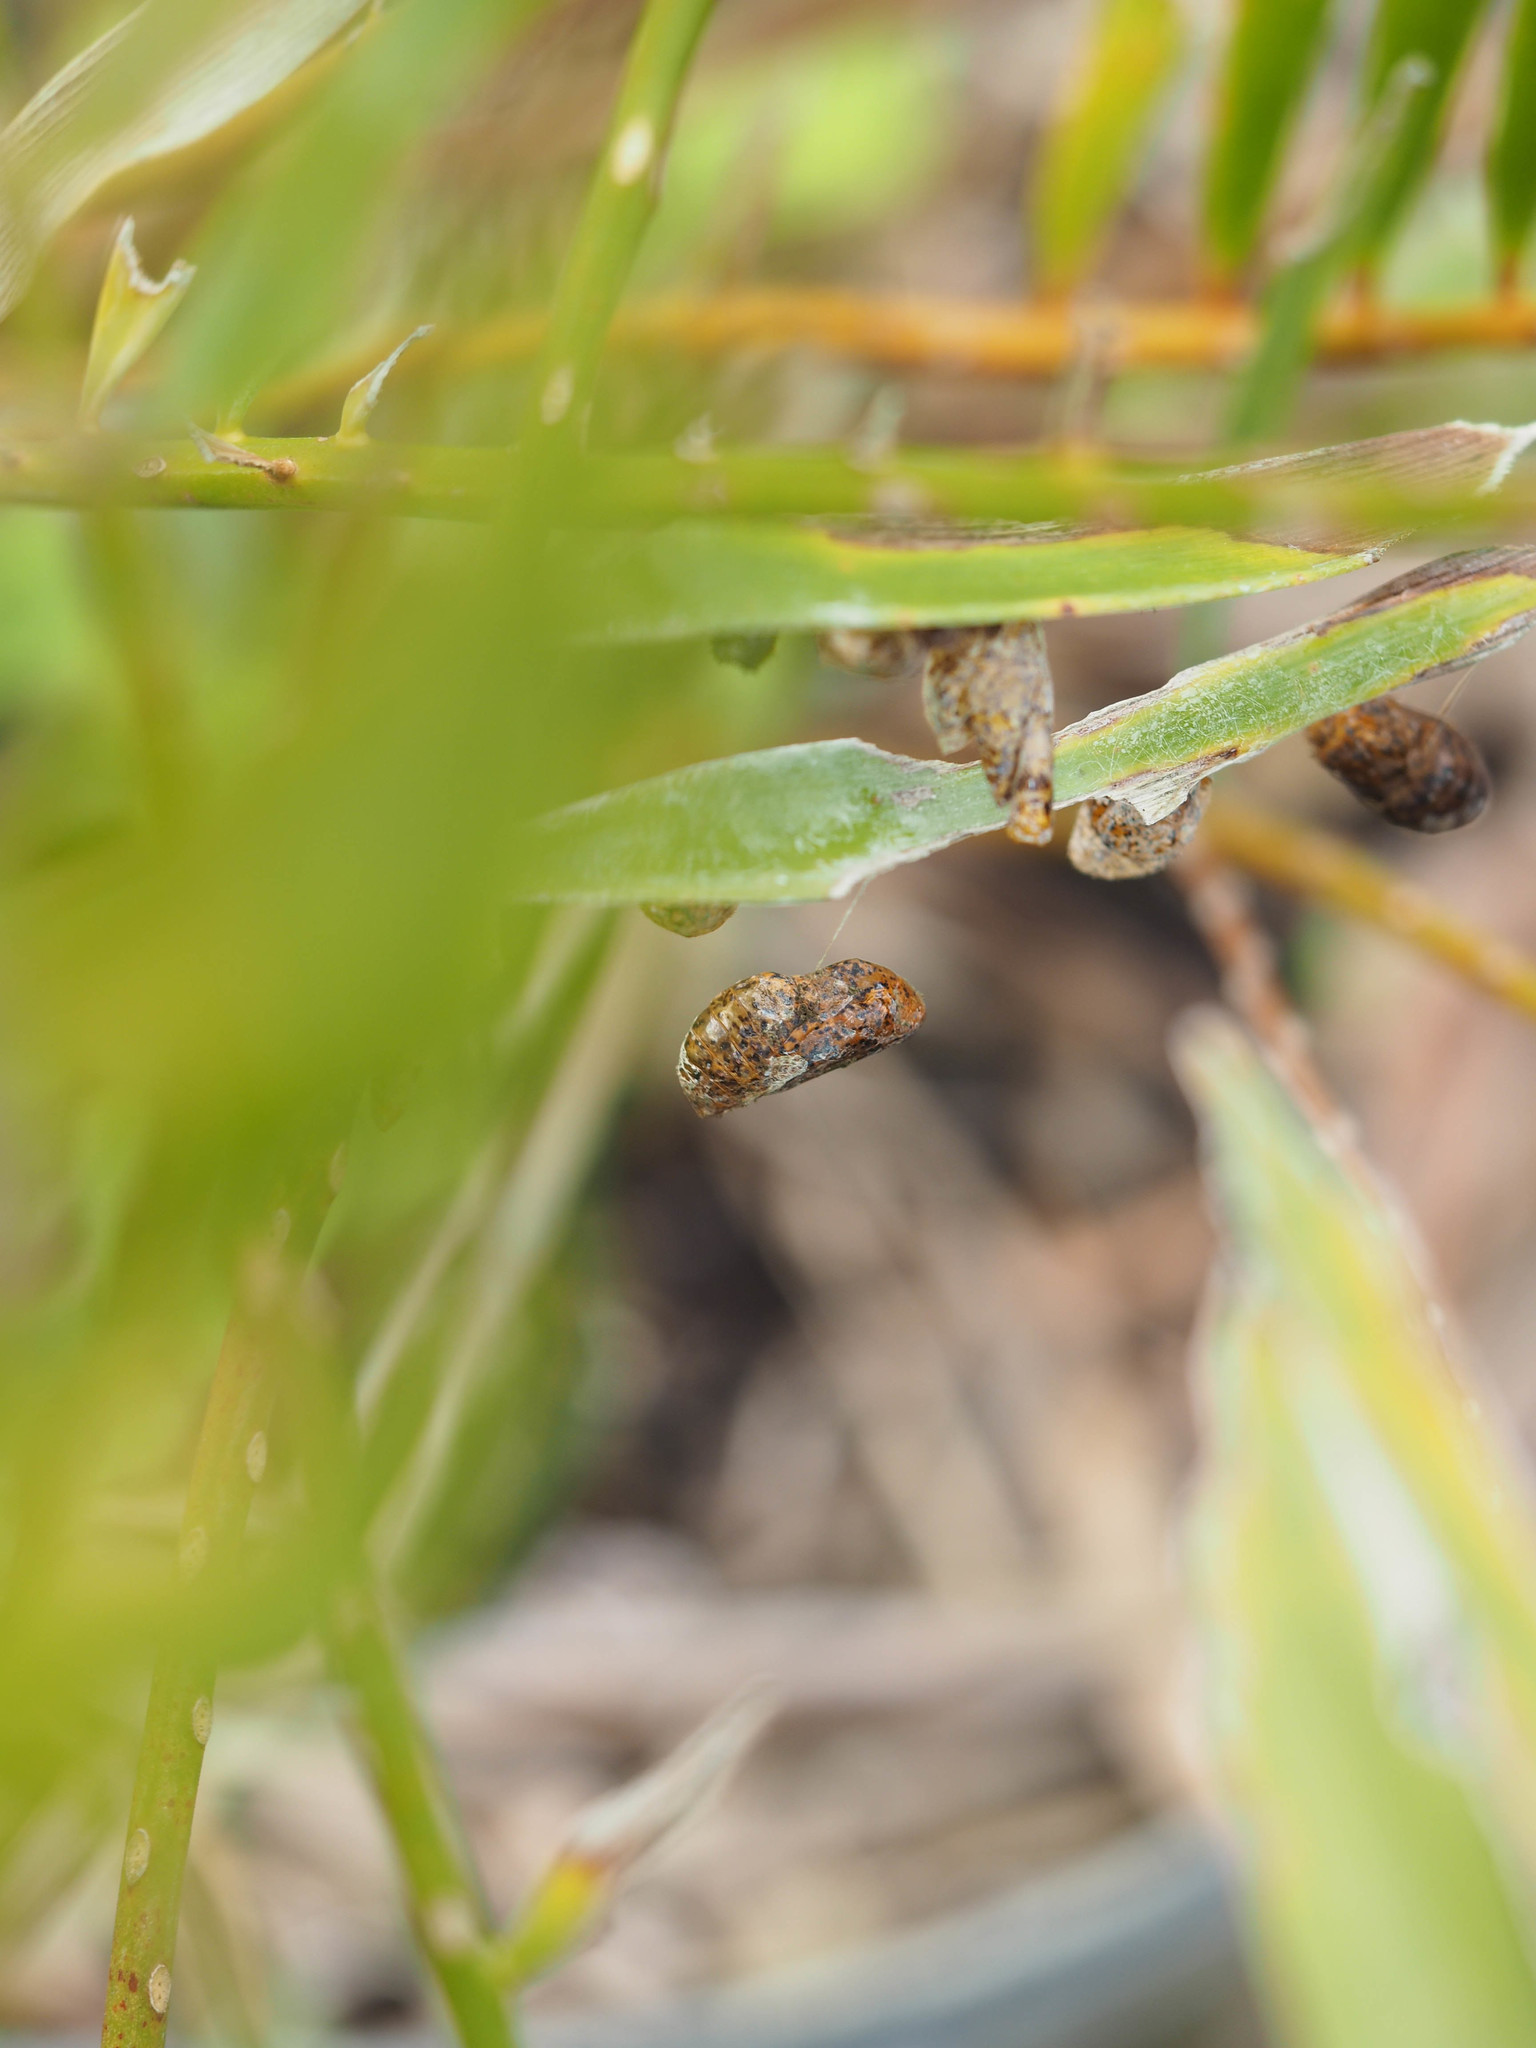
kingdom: Animalia
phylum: Arthropoda
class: Insecta
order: Lepidoptera
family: Lycaenidae
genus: Eumaeus
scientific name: Eumaeus atala
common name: Atala
